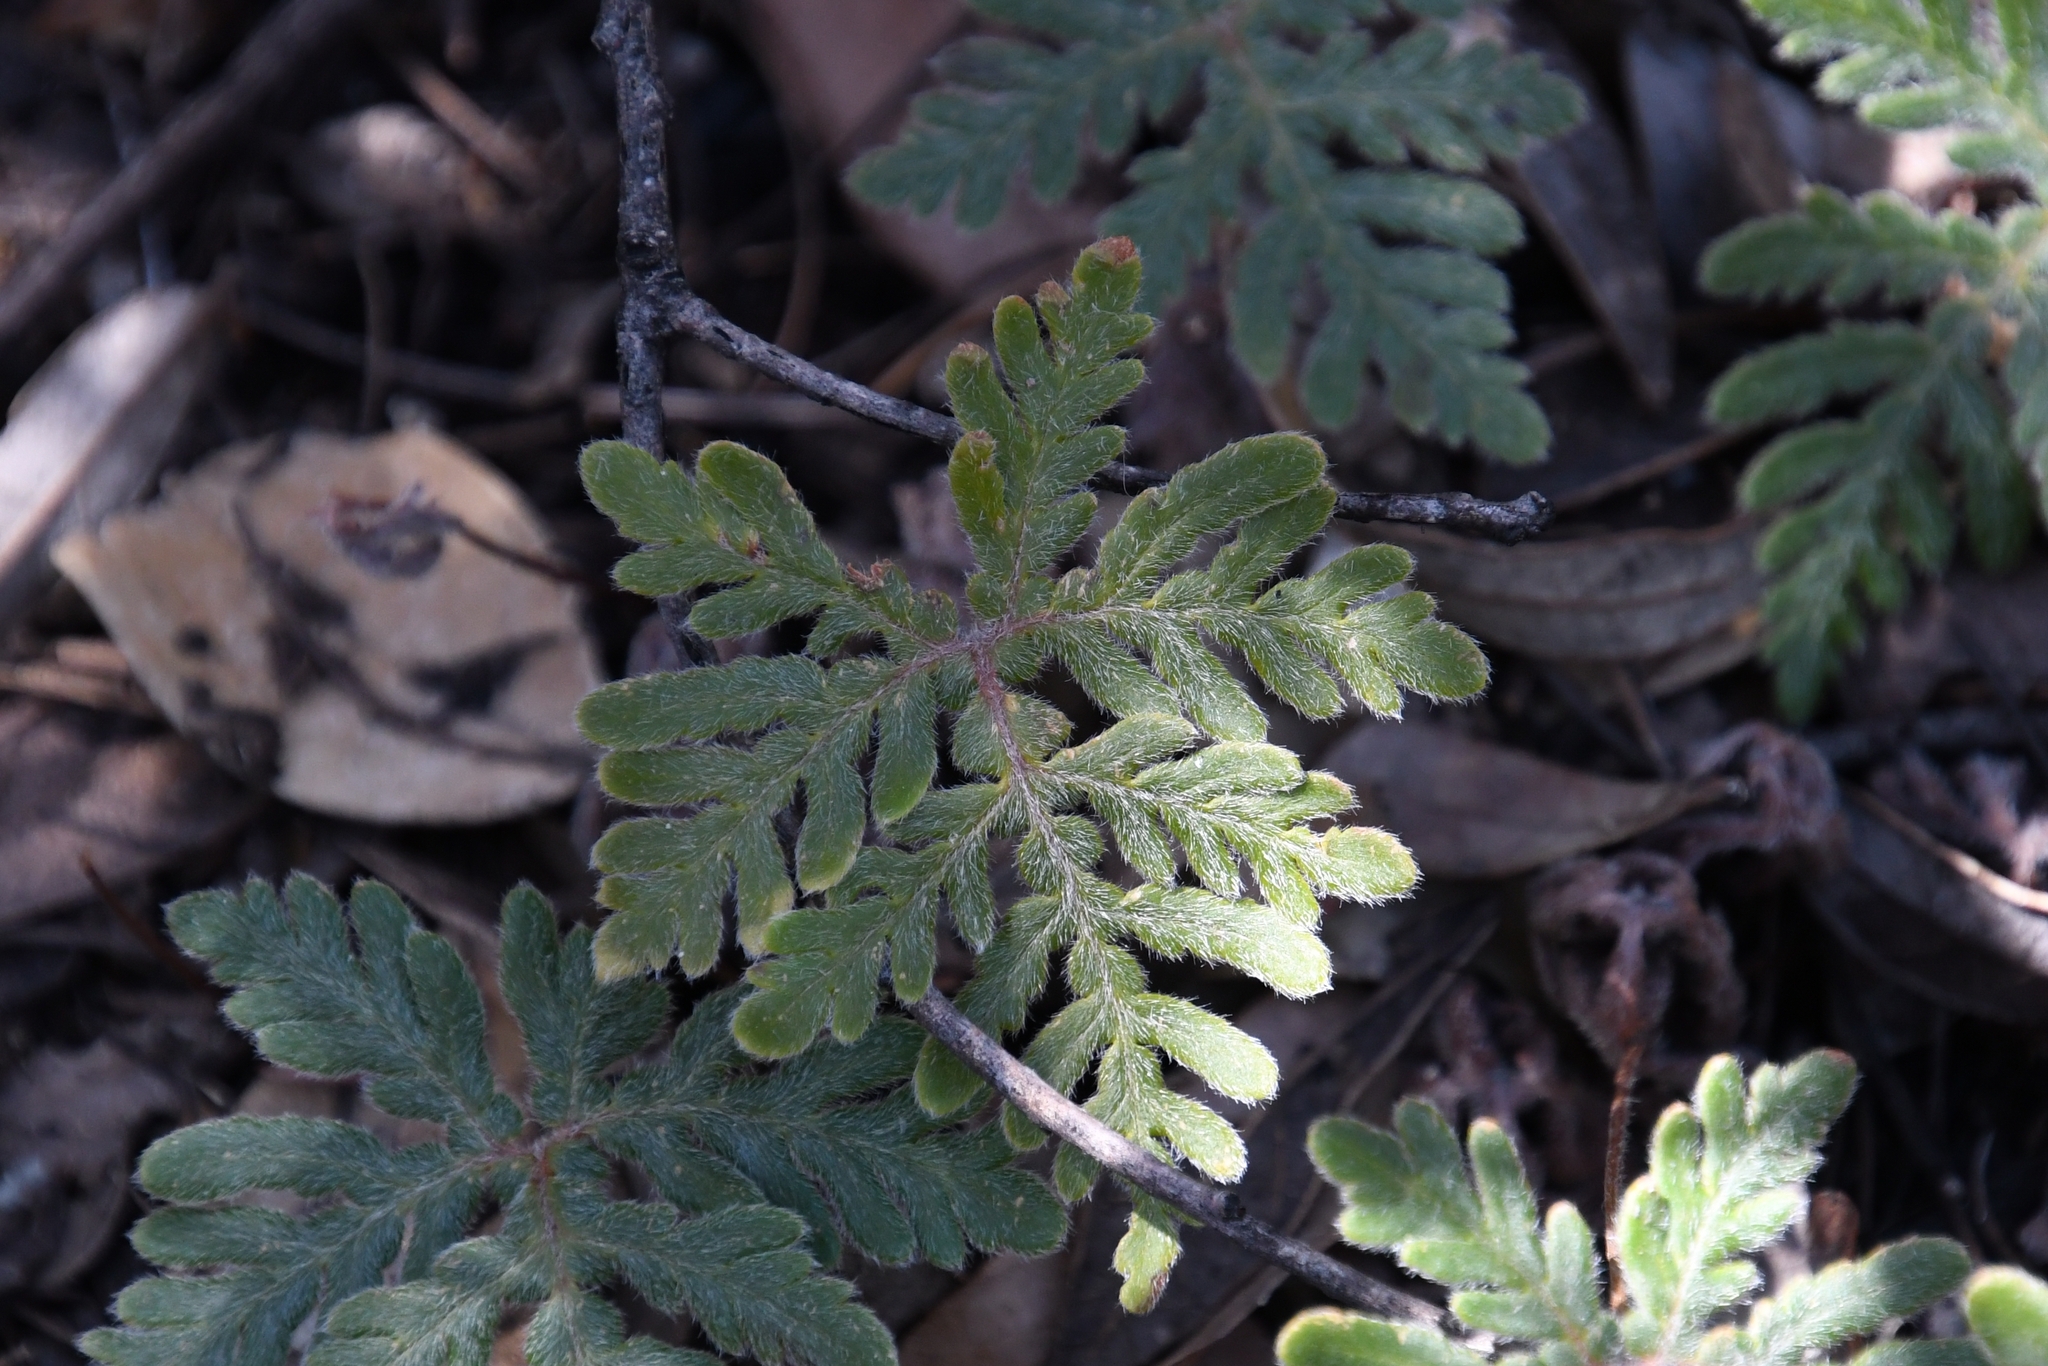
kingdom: Plantae
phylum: Tracheophyta
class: Polypodiopsida
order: Polypodiales
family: Pteridaceae
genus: Bommeria
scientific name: Bommeria hispida
